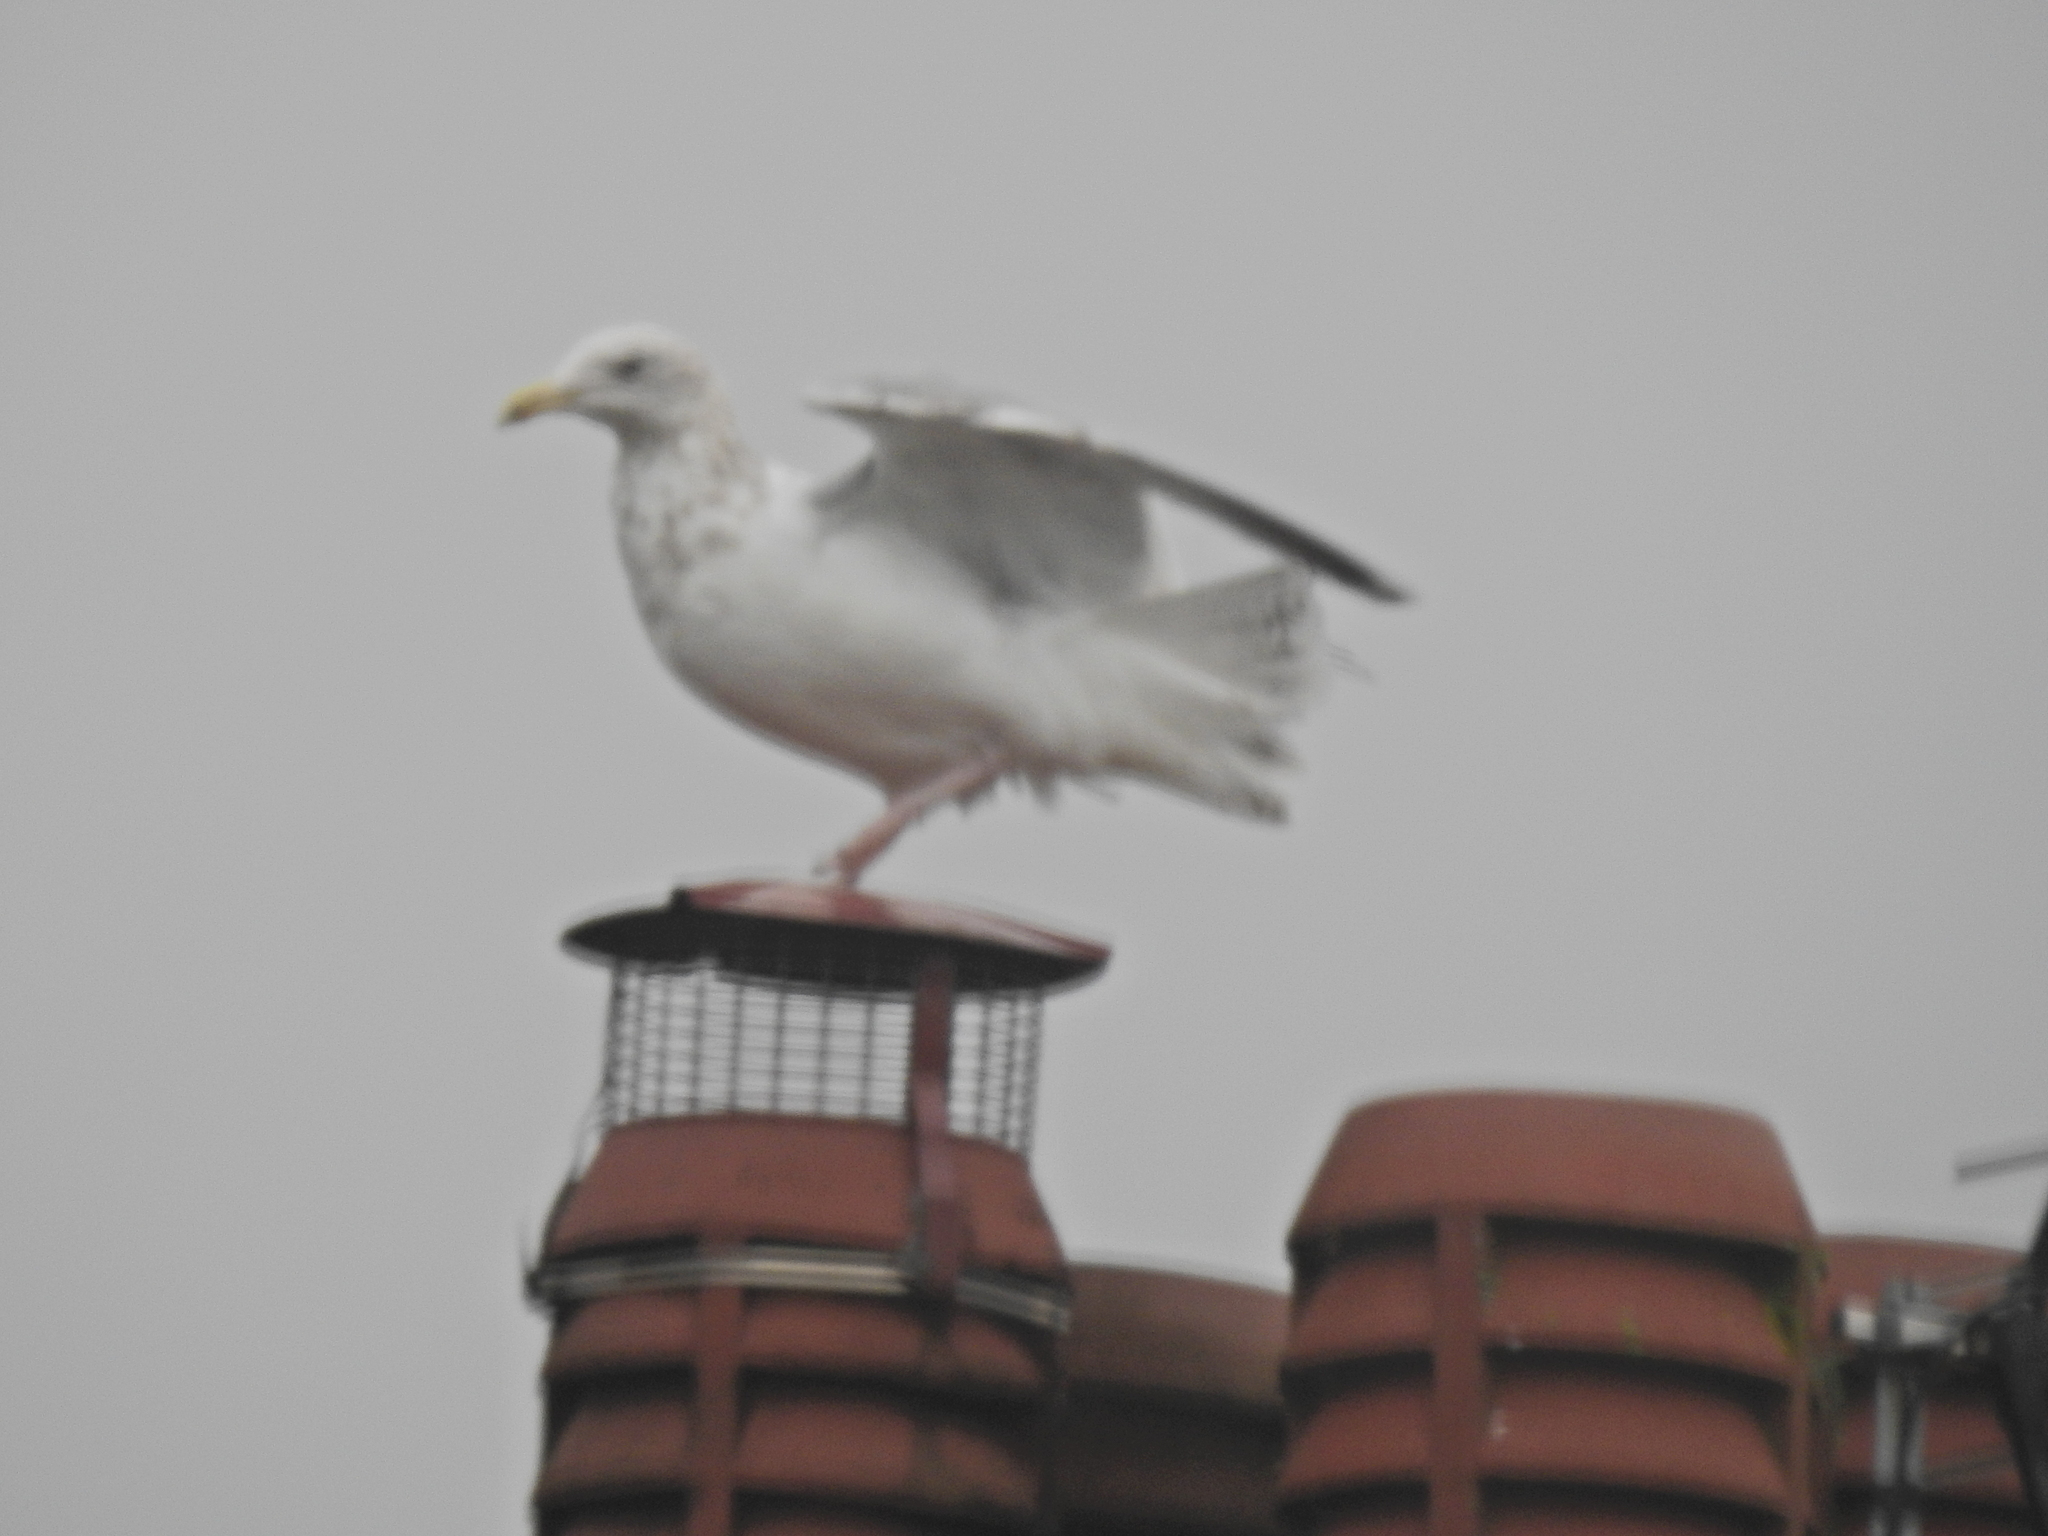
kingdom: Animalia
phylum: Chordata
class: Aves
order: Charadriiformes
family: Laridae
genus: Larus
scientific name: Larus argentatus
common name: Herring gull
